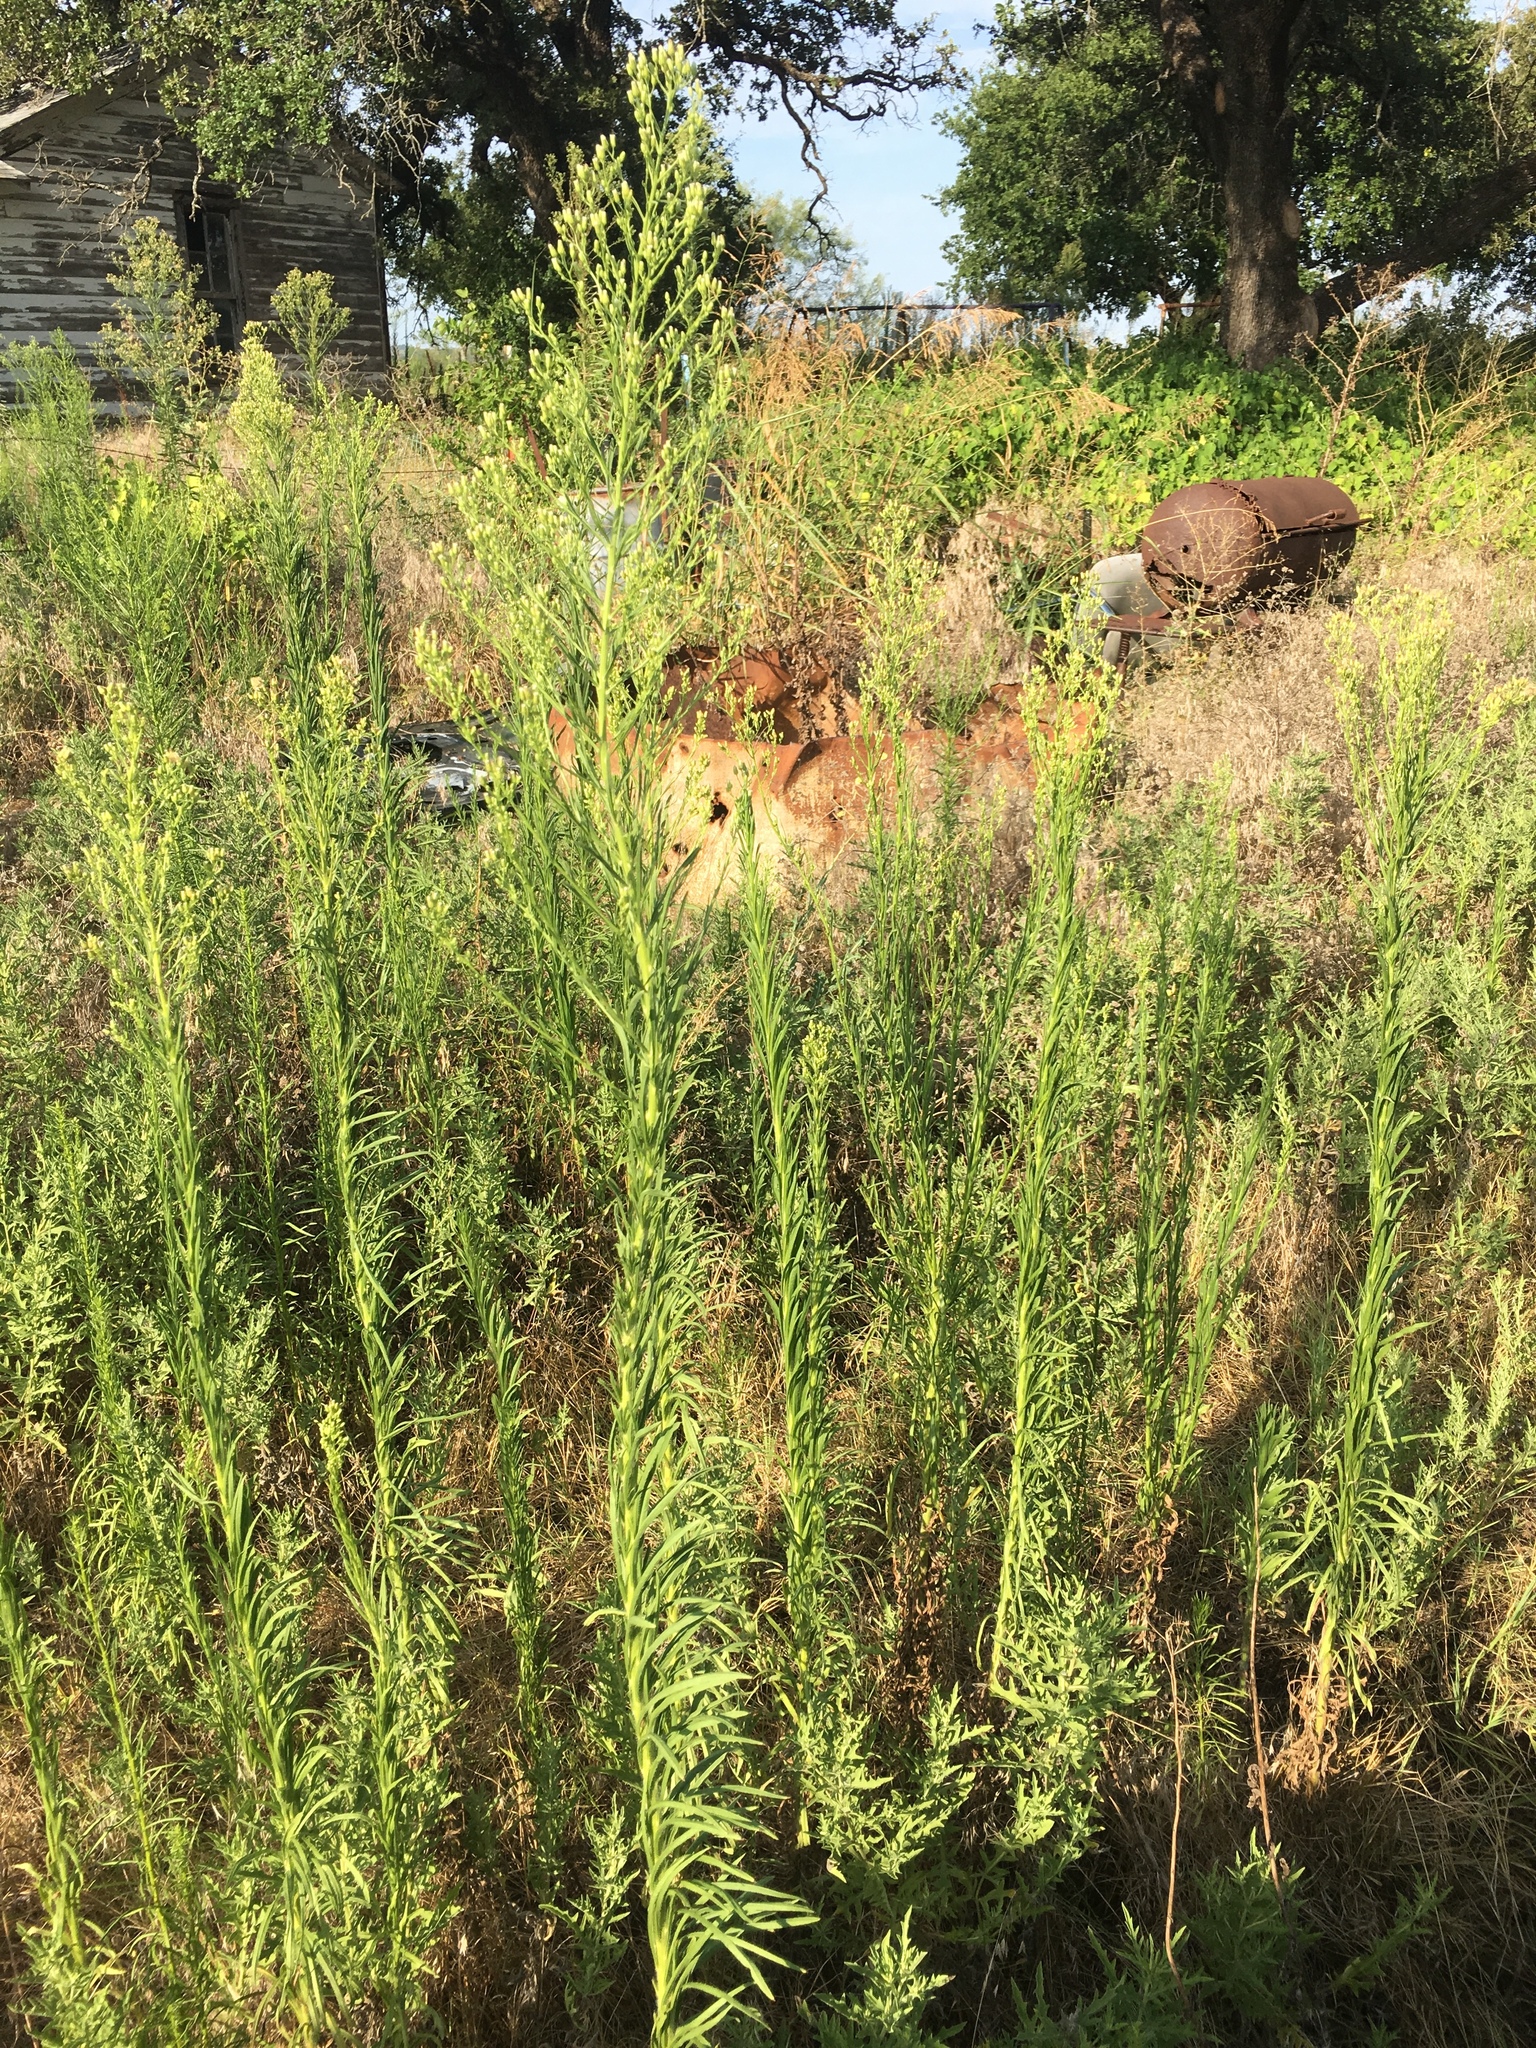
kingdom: Plantae
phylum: Tracheophyta
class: Magnoliopsida
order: Asterales
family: Asteraceae
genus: Erigeron
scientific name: Erigeron canadensis
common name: Canadian fleabane
